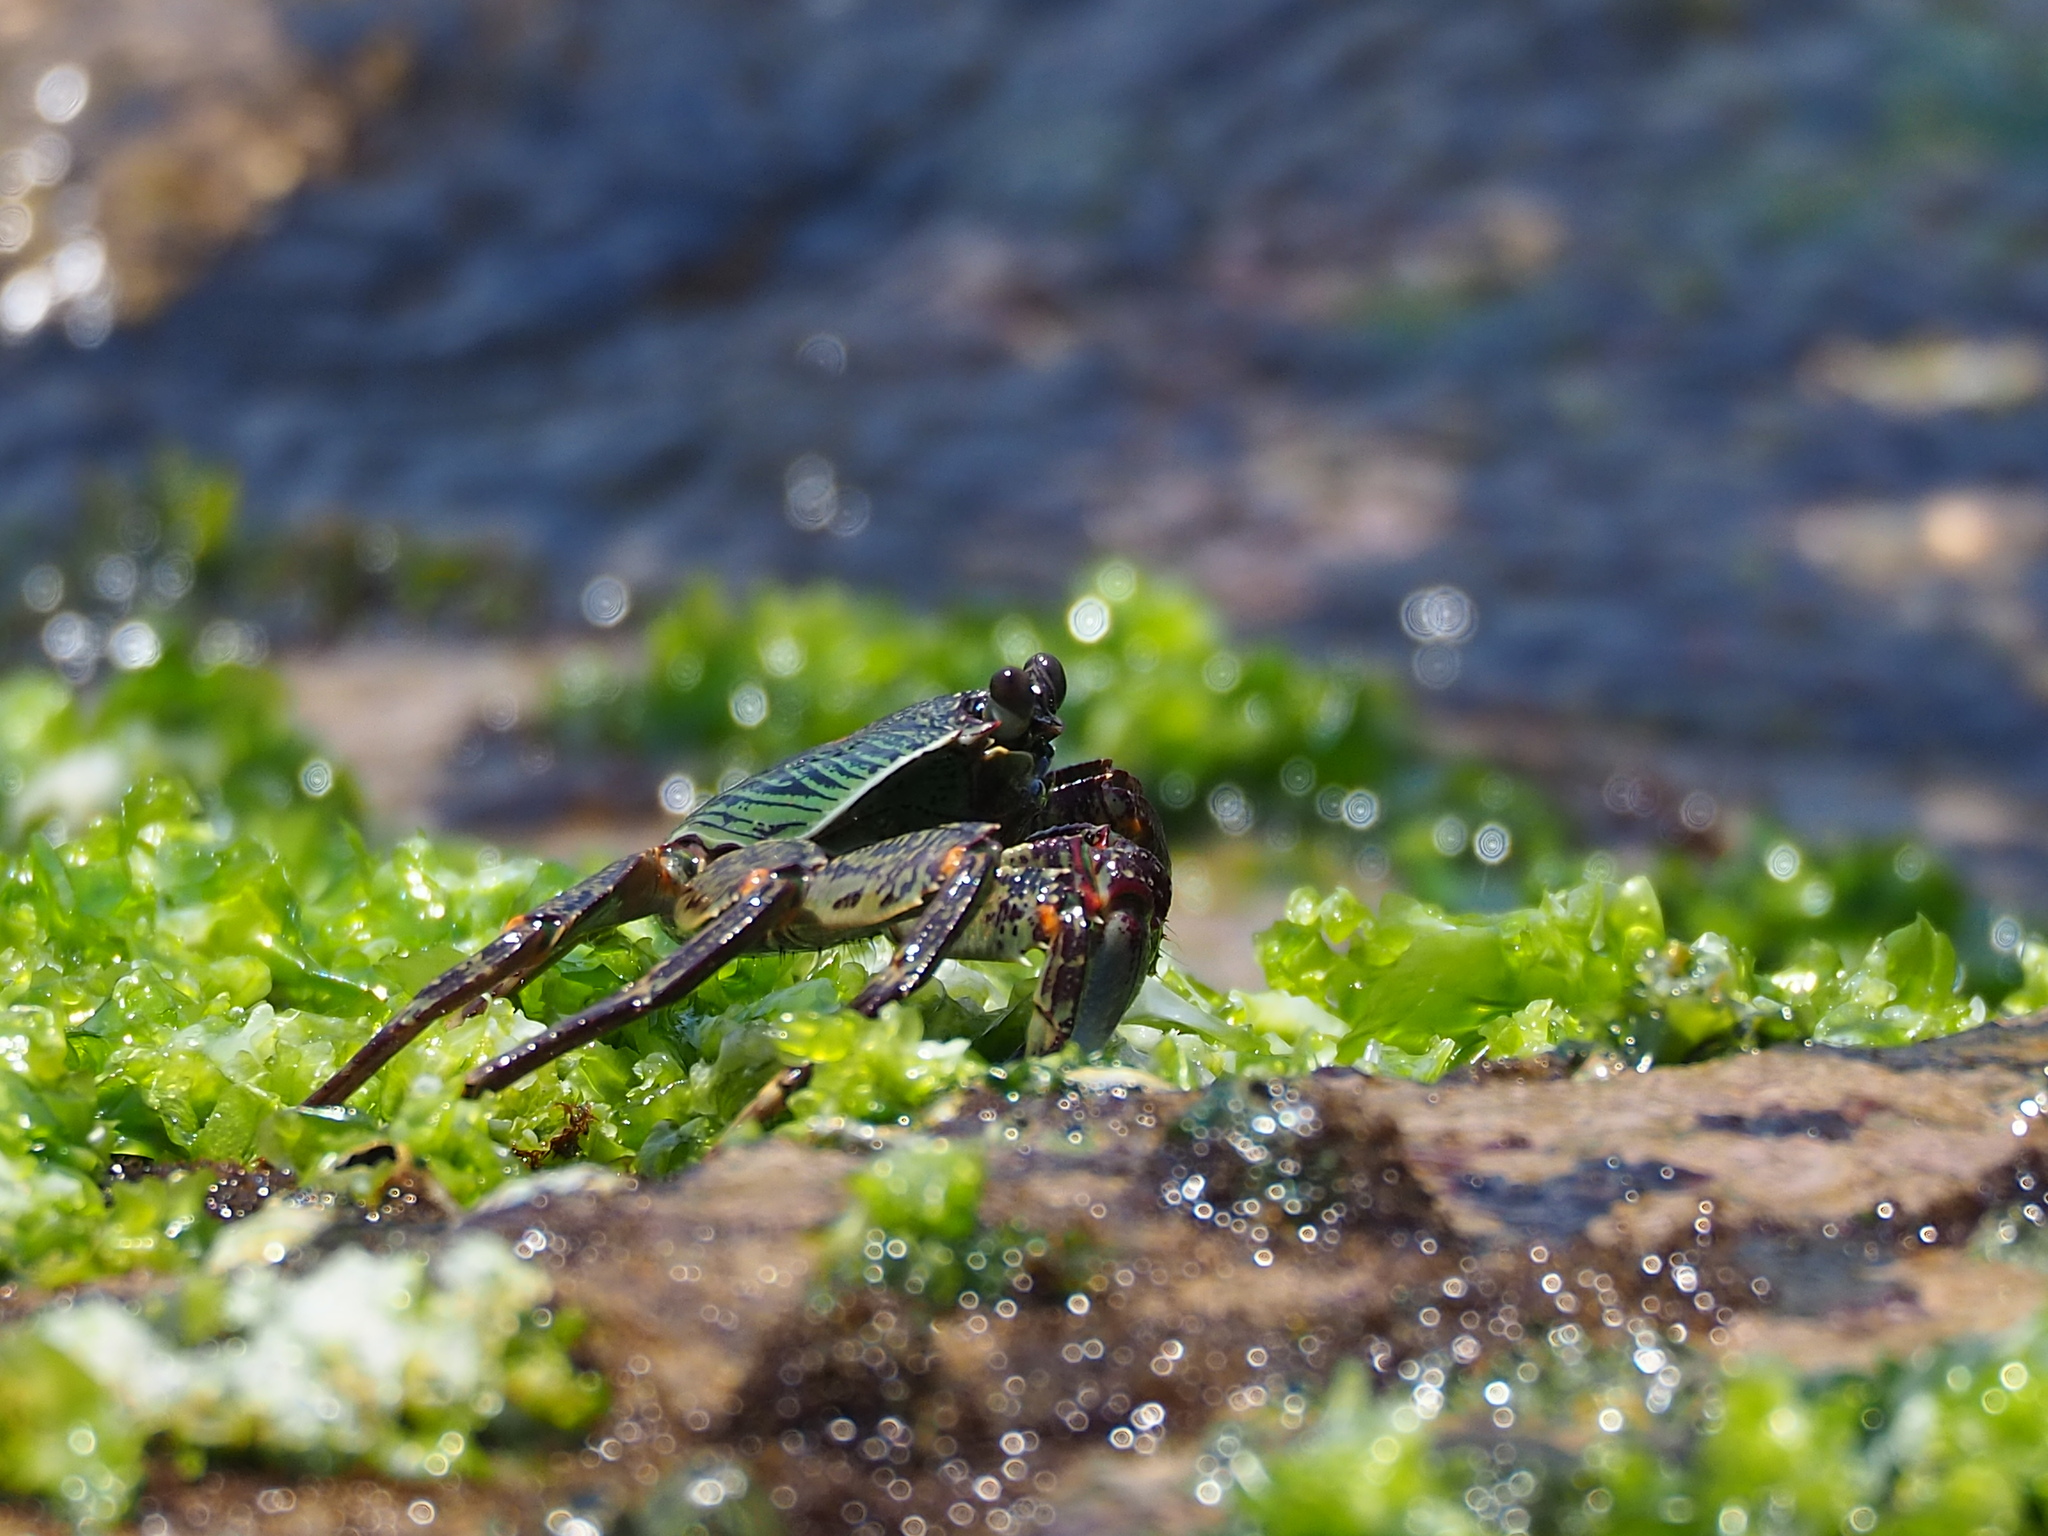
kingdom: Animalia
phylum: Arthropoda
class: Malacostraca
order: Decapoda
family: Grapsidae
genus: Grapsus
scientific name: Grapsus albolineatus
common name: Mottled lightfoot crab
